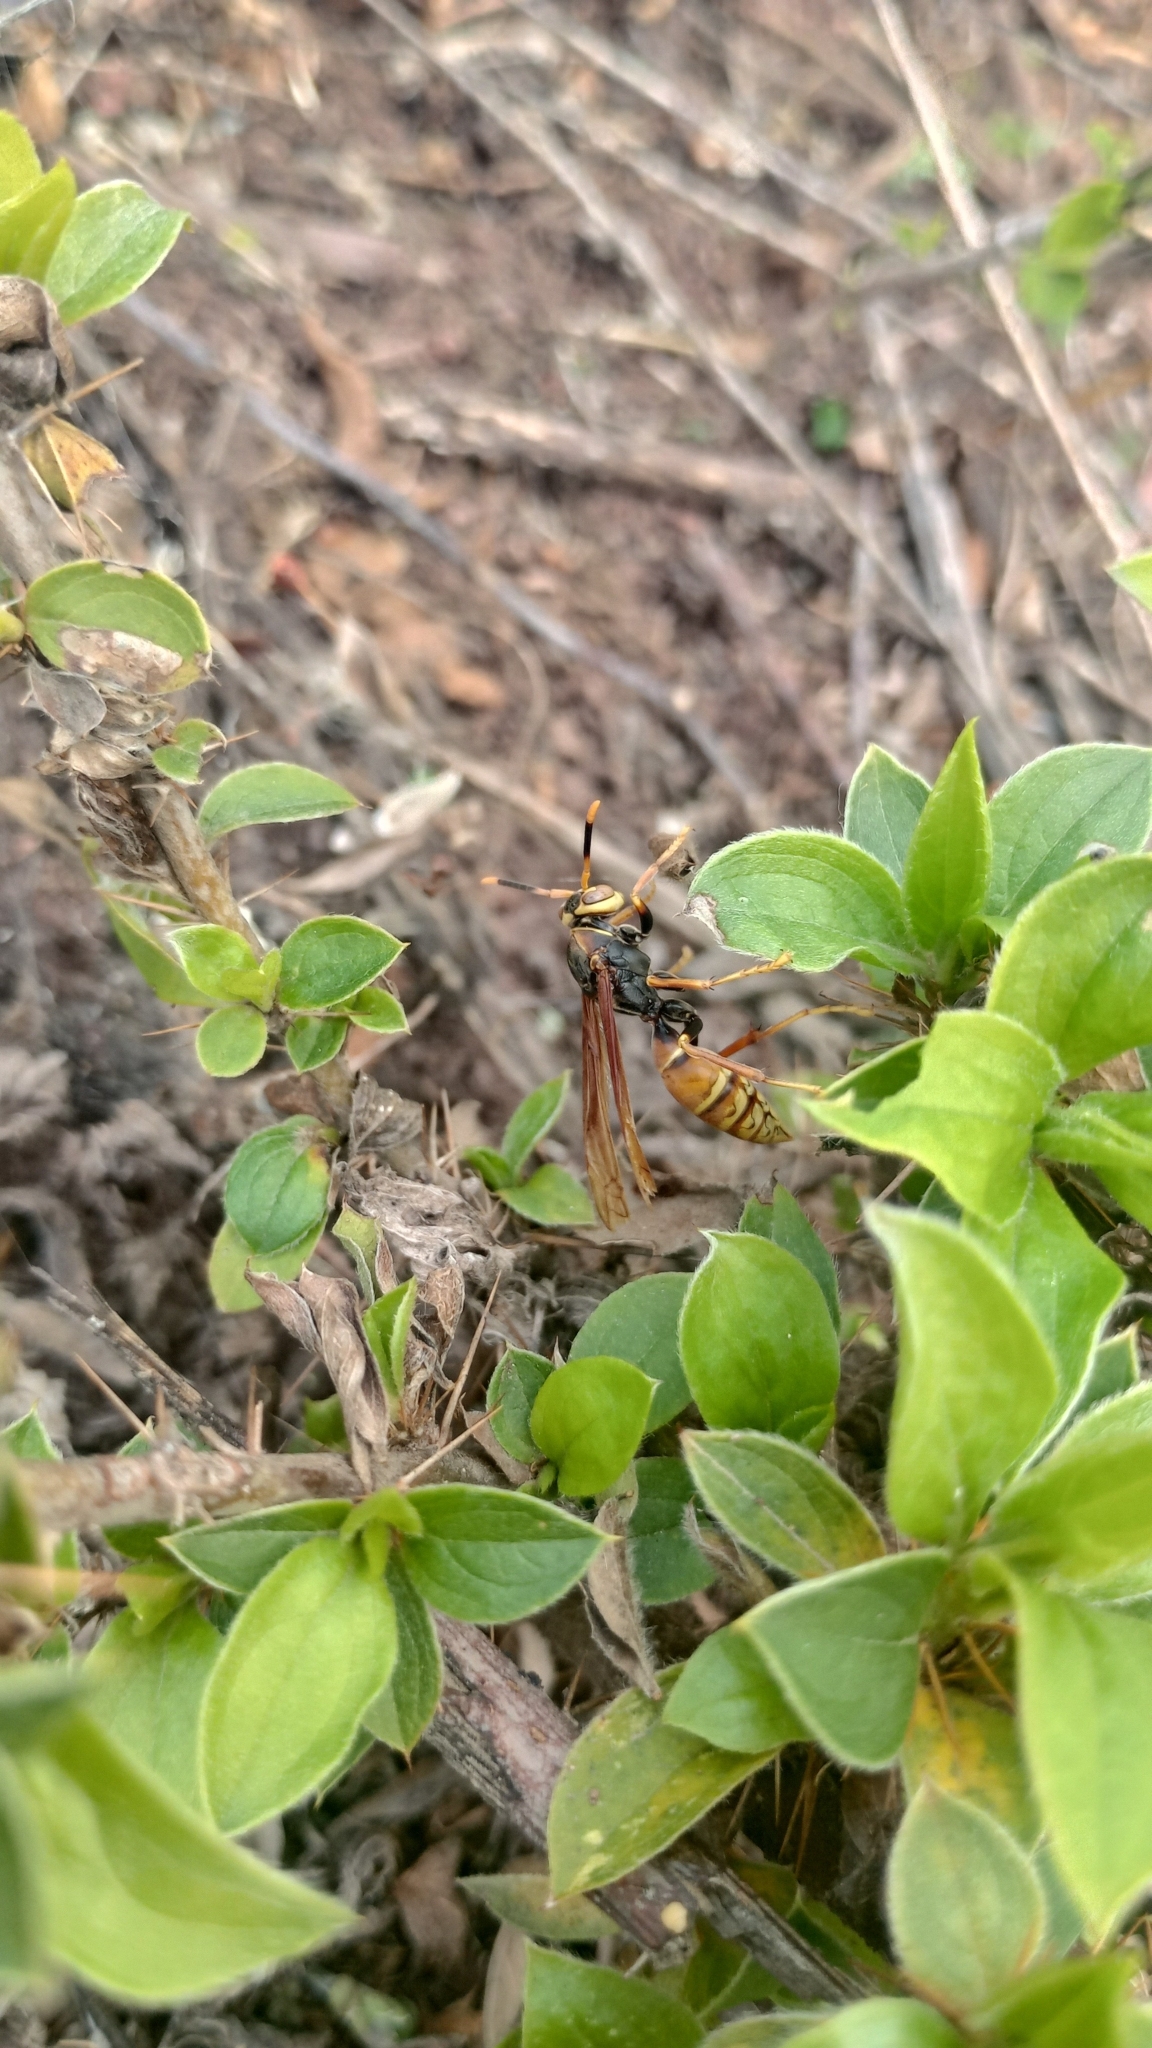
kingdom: Animalia
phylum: Arthropoda
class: Insecta
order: Hymenoptera
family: Eumenidae
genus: Polistes
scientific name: Polistes buyssoni
